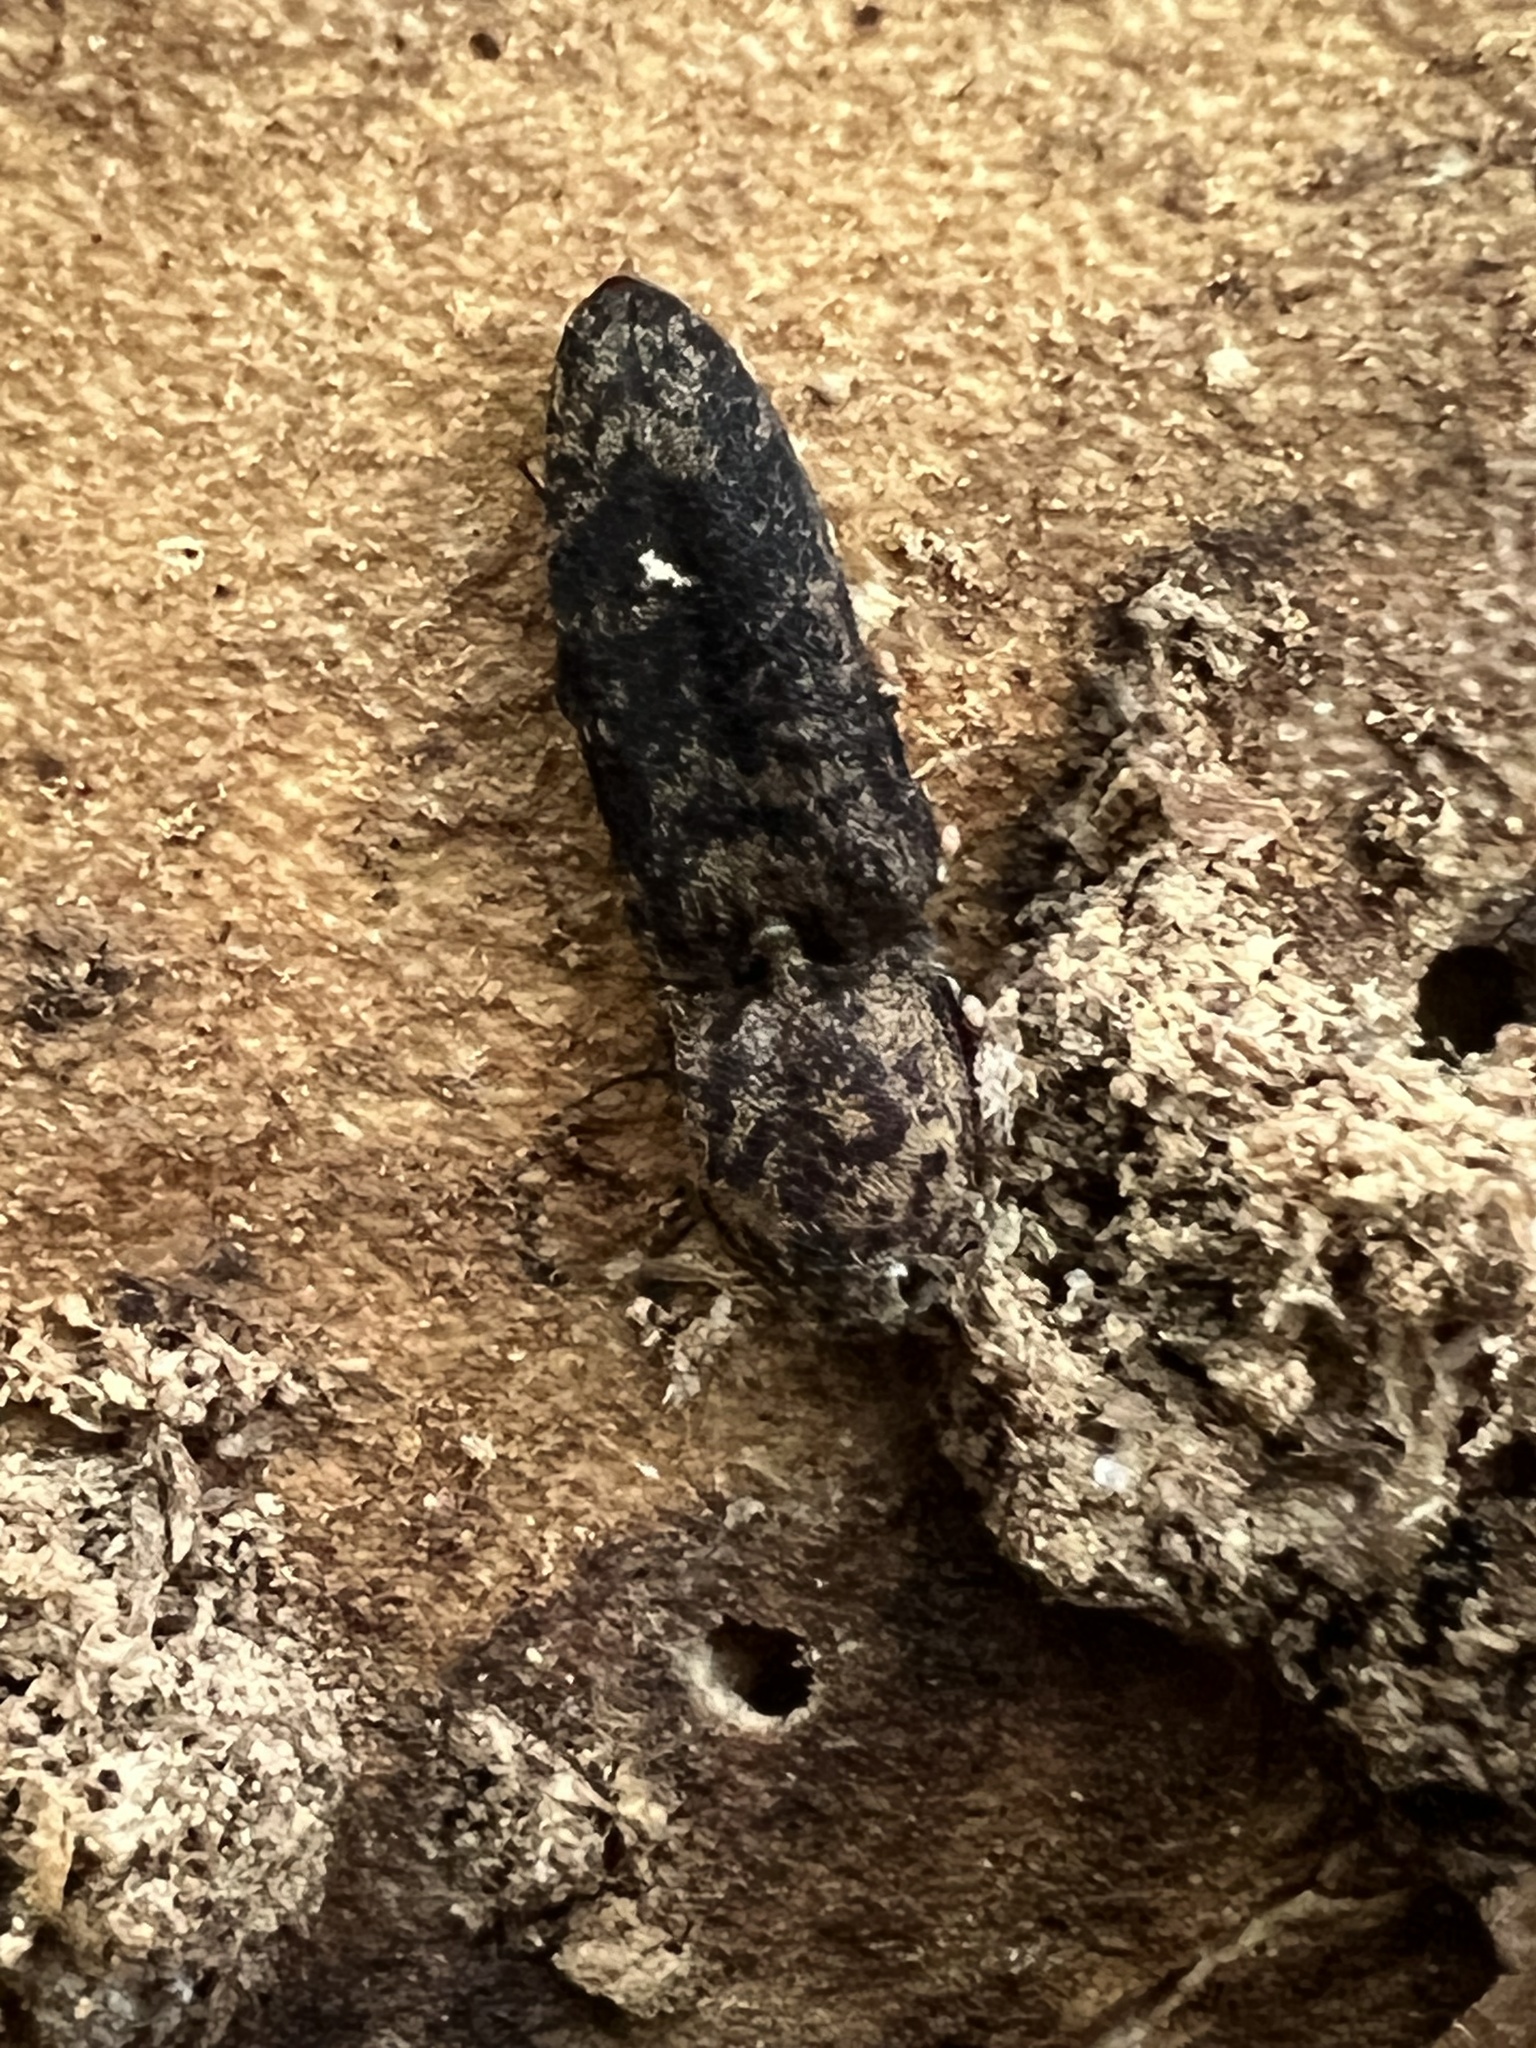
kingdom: Animalia
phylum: Arthropoda
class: Insecta
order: Coleoptera
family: Elateridae
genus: Lacon
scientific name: Lacon marmoratus
